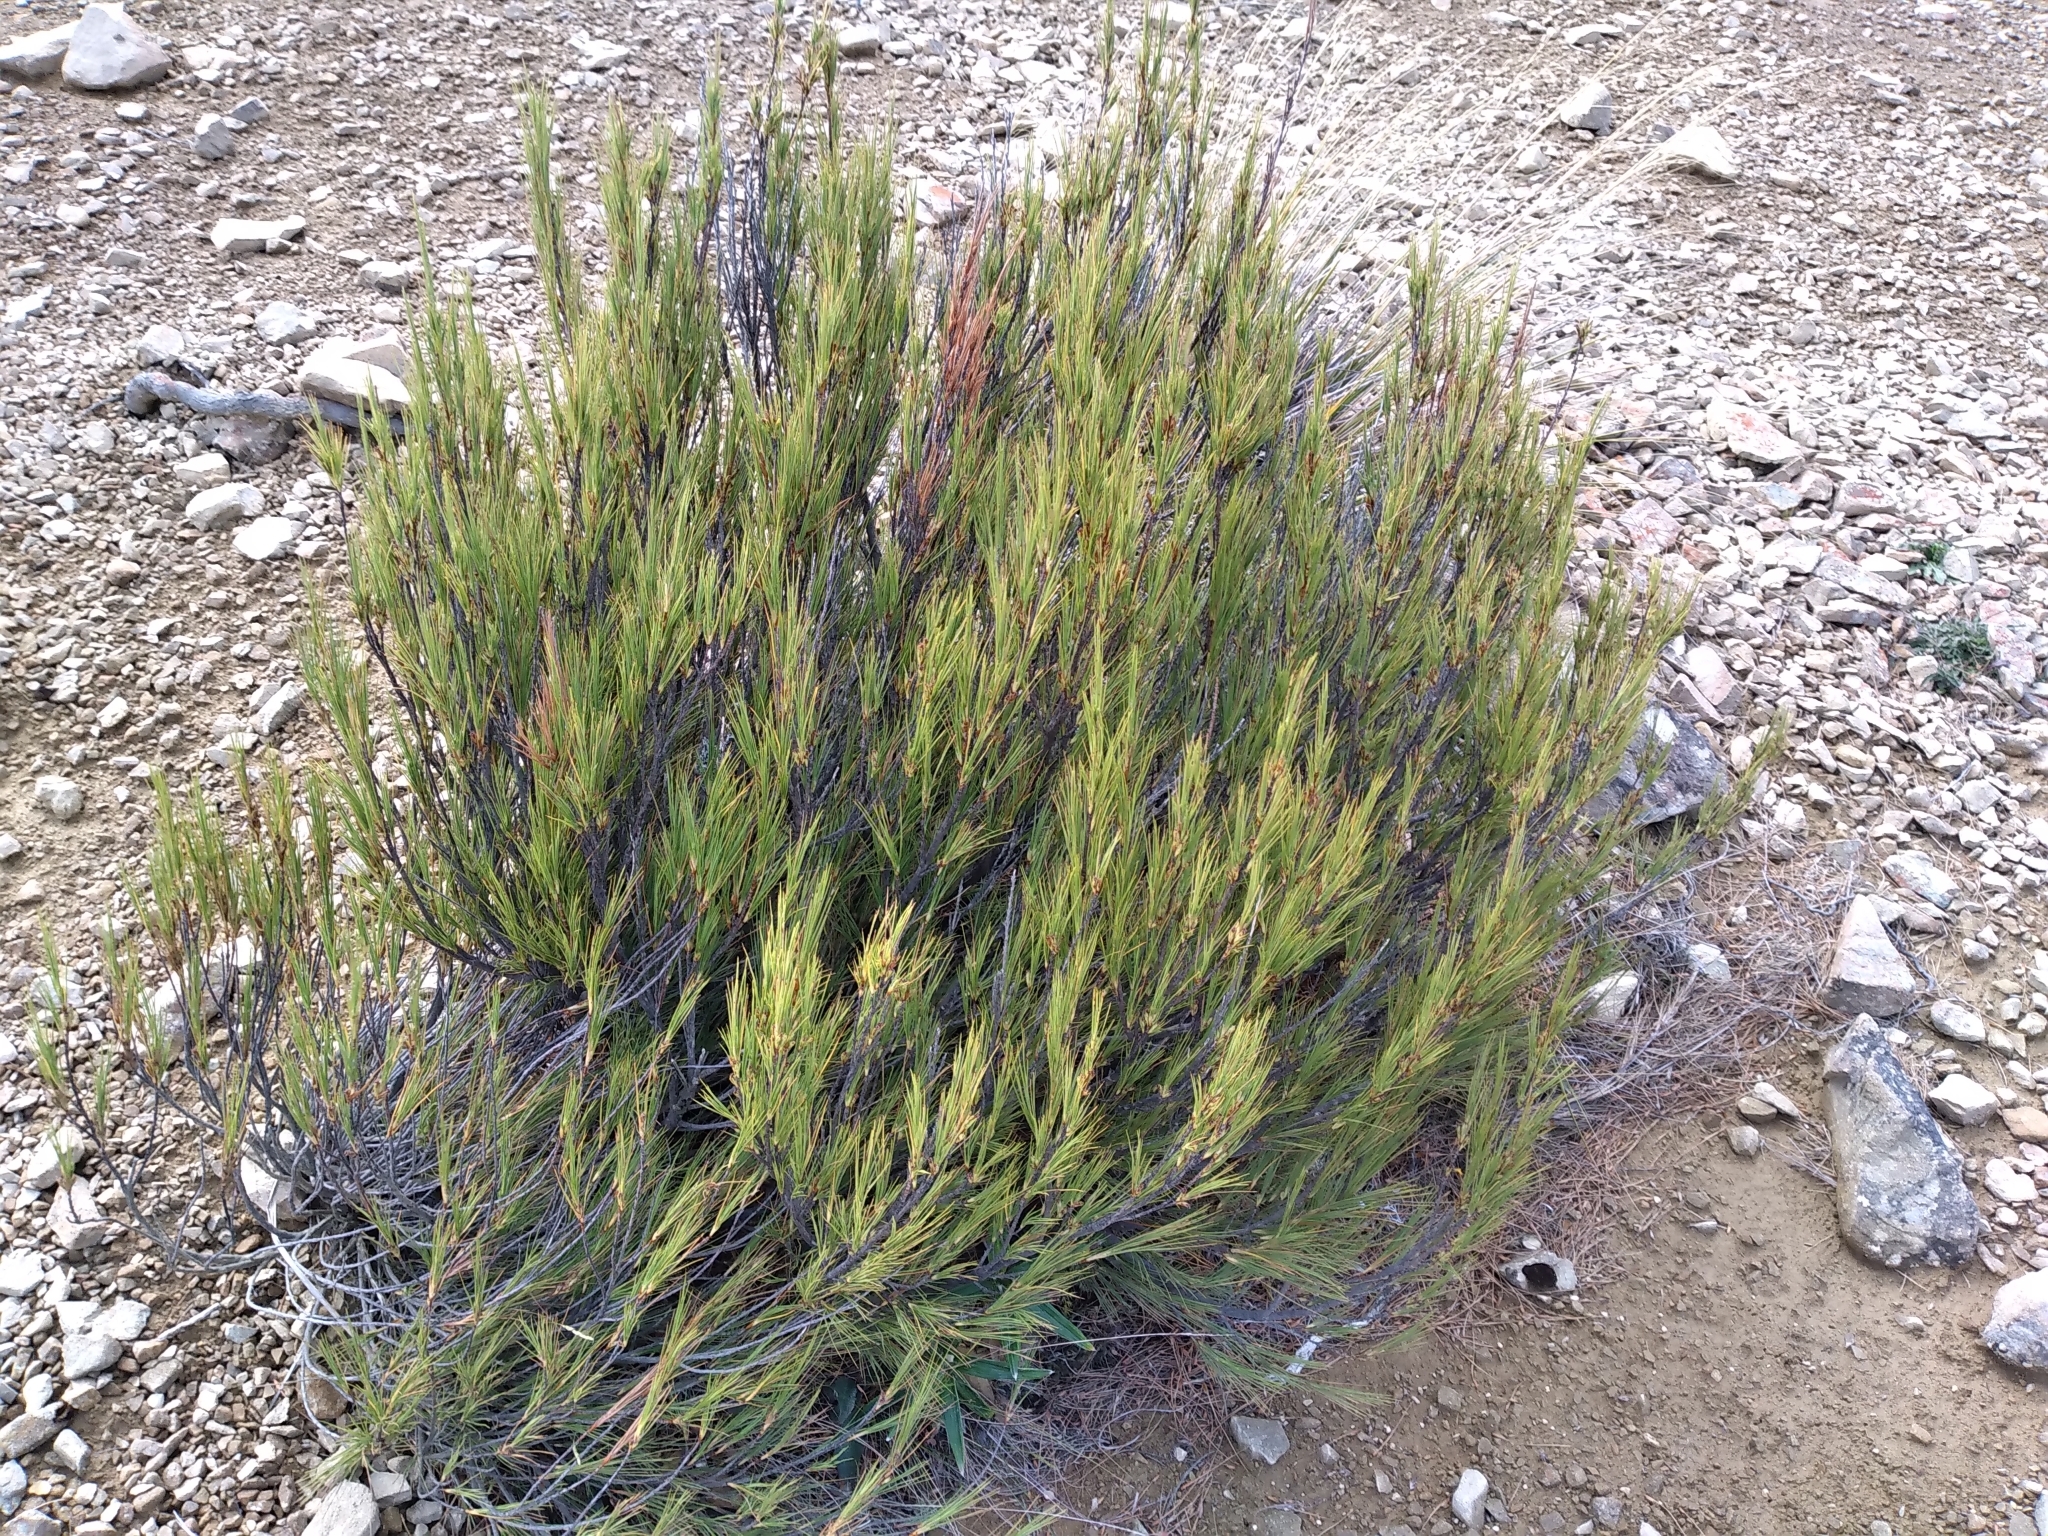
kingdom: Plantae
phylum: Tracheophyta
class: Magnoliopsida
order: Ericales
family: Ericaceae
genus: Dracophyllum
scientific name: Dracophyllum acerosum
